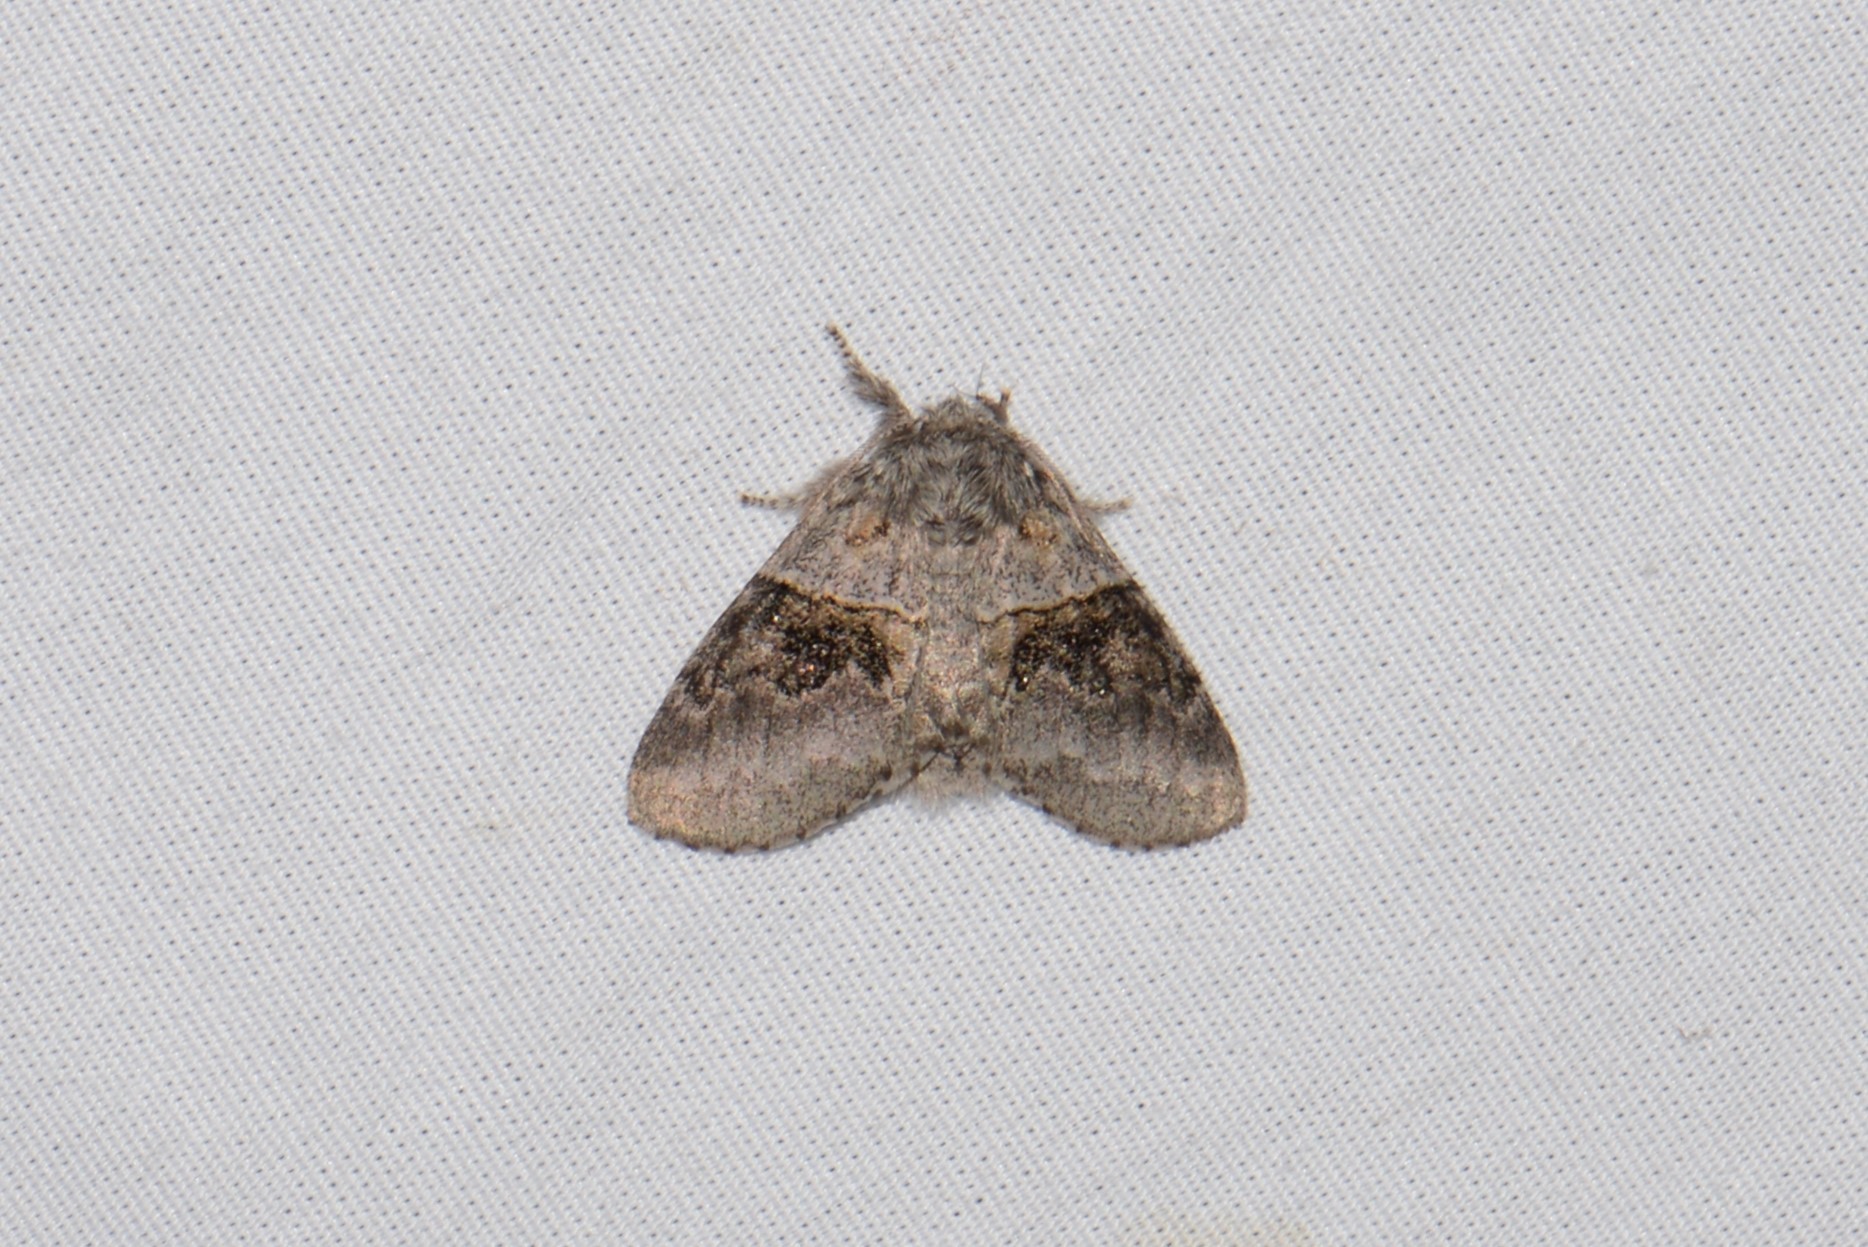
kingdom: Animalia
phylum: Arthropoda
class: Insecta
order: Lepidoptera
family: Notodontidae
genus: Gluphisia
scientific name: Gluphisia septentrionis
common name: Common gluphisia
